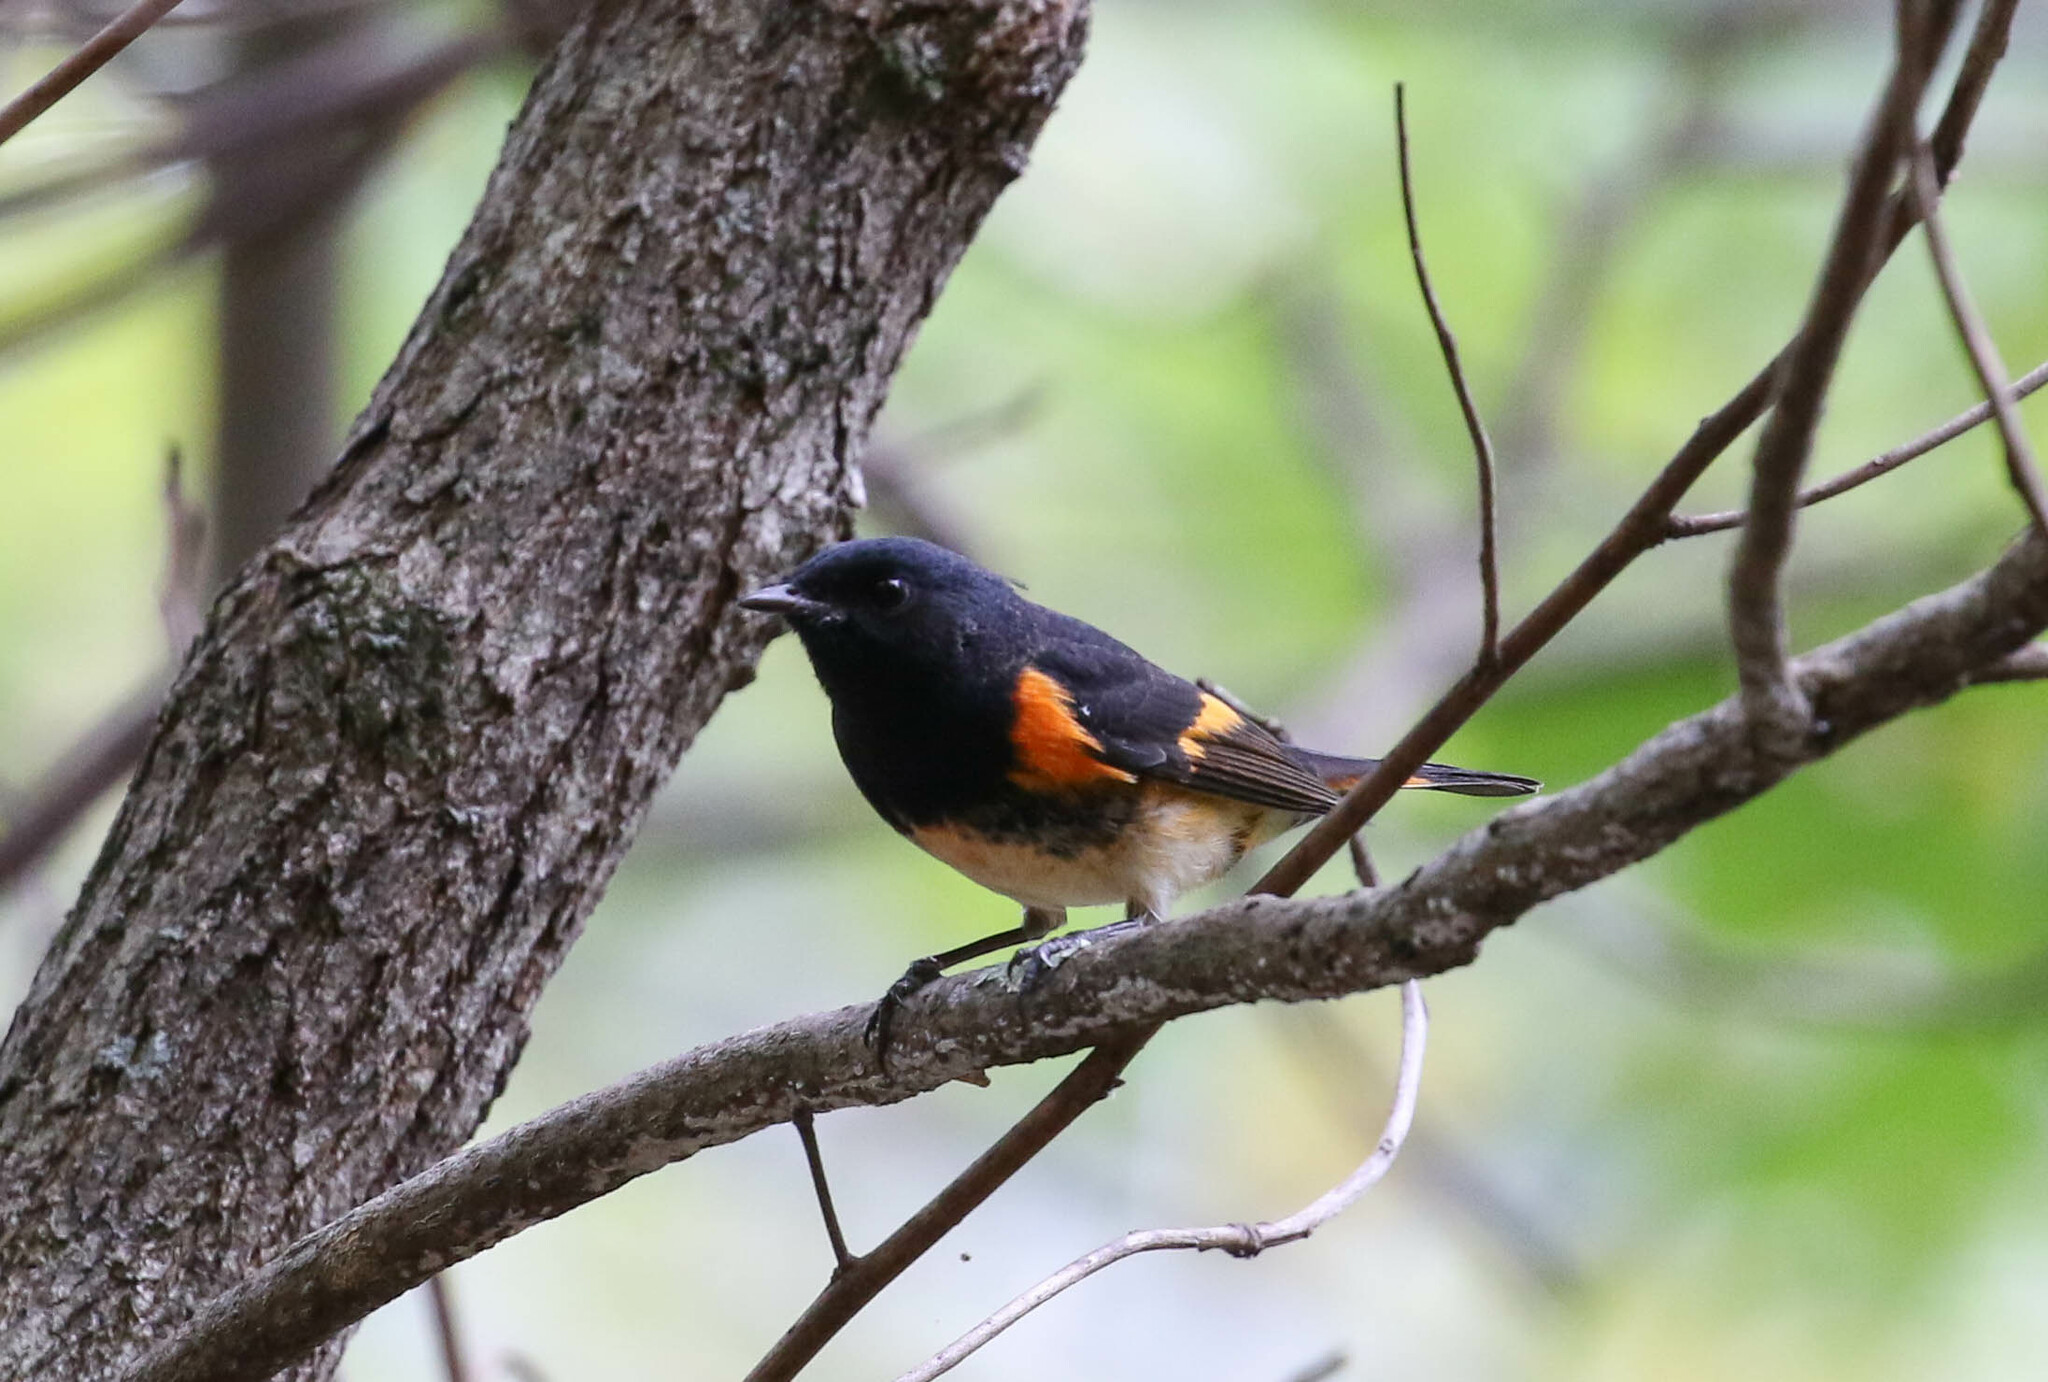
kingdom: Animalia
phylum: Chordata
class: Aves
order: Passeriformes
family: Parulidae
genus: Setophaga
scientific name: Setophaga ruticilla
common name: American redstart
